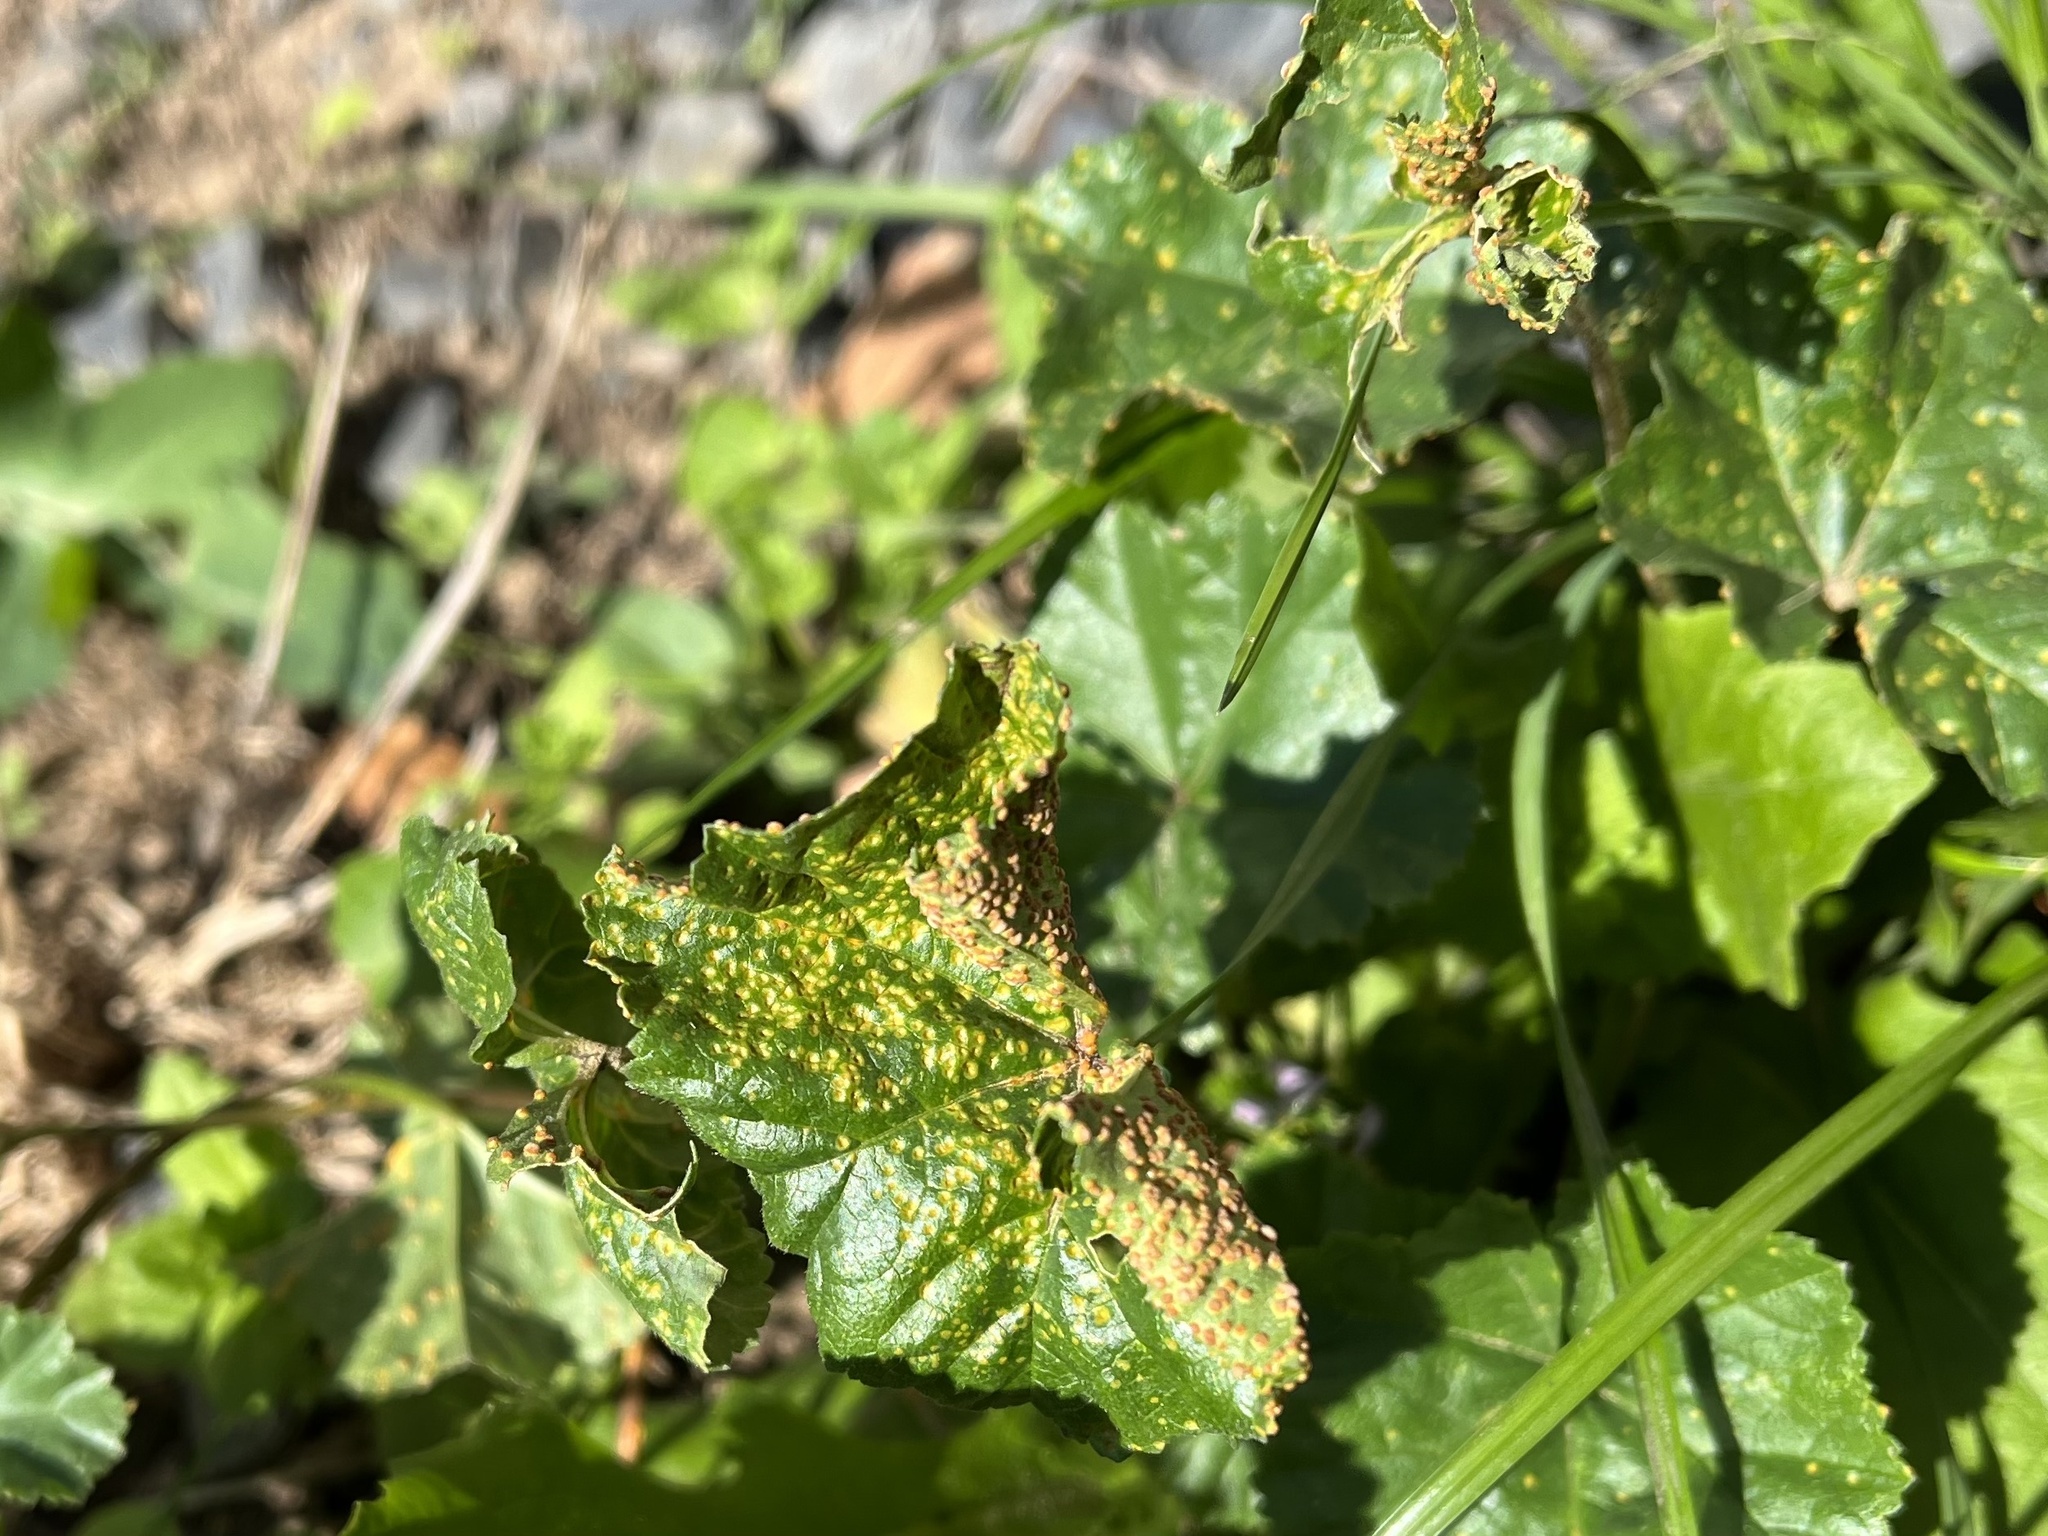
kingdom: Fungi
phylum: Basidiomycota
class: Pucciniomycetes
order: Pucciniales
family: Pucciniaceae
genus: Puccinia
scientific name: Puccinia malvacearum
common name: Hollyhock rust
